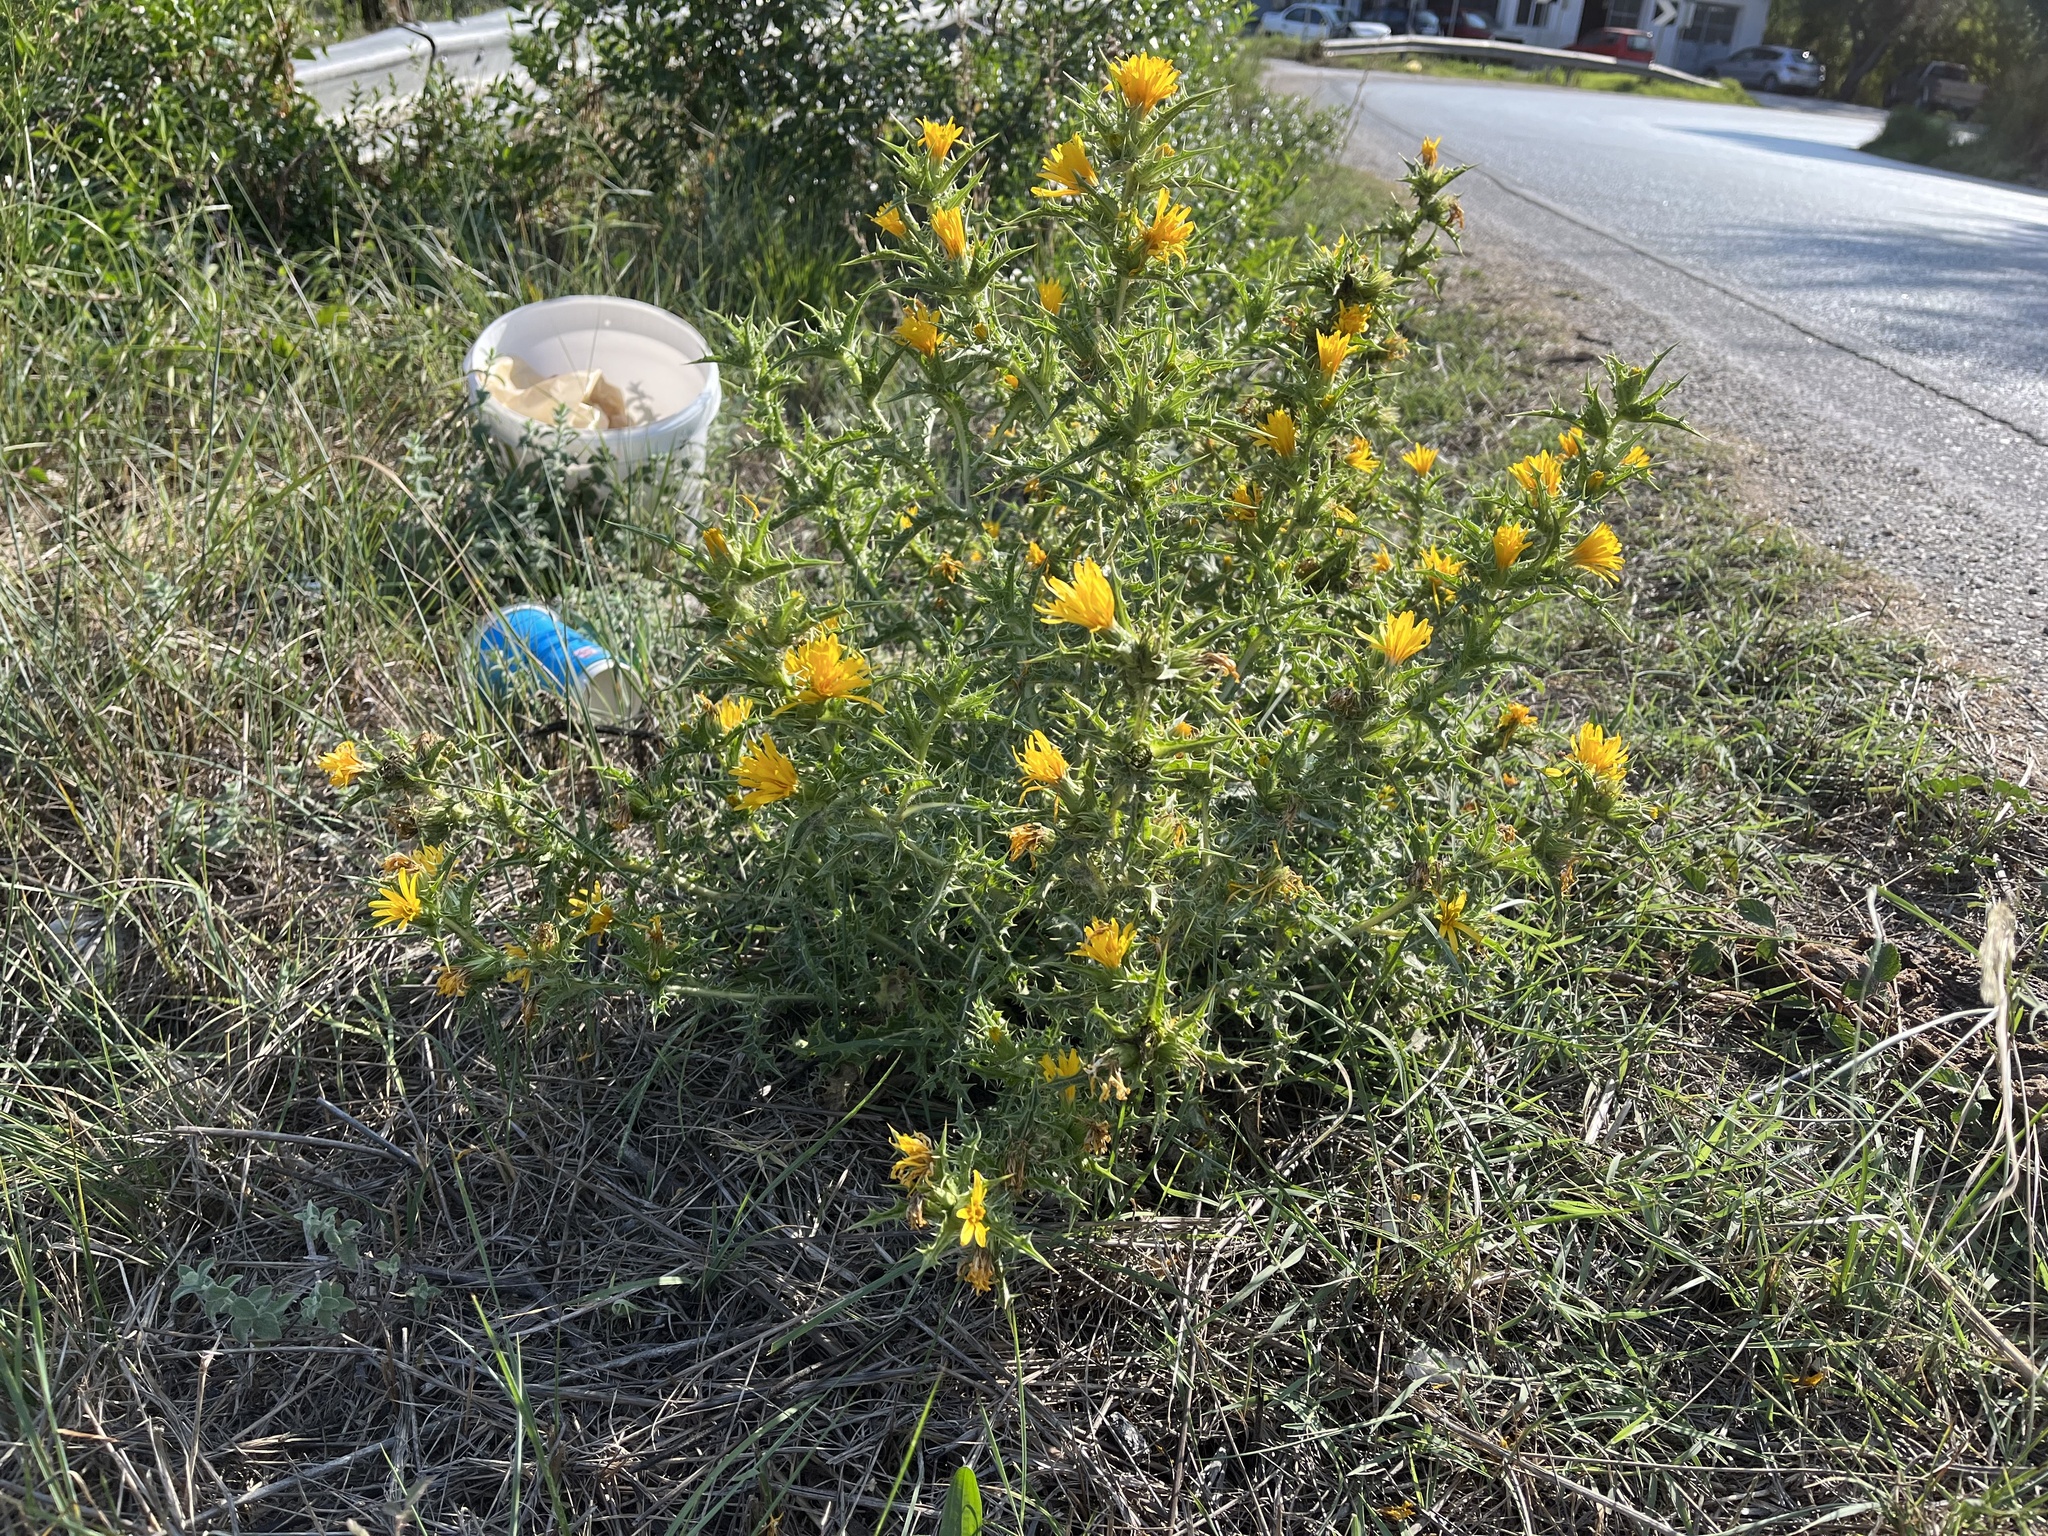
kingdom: Plantae
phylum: Tracheophyta
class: Magnoliopsida
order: Asterales
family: Asteraceae
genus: Scolymus
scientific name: Scolymus hispanicus
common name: Golden thistle
